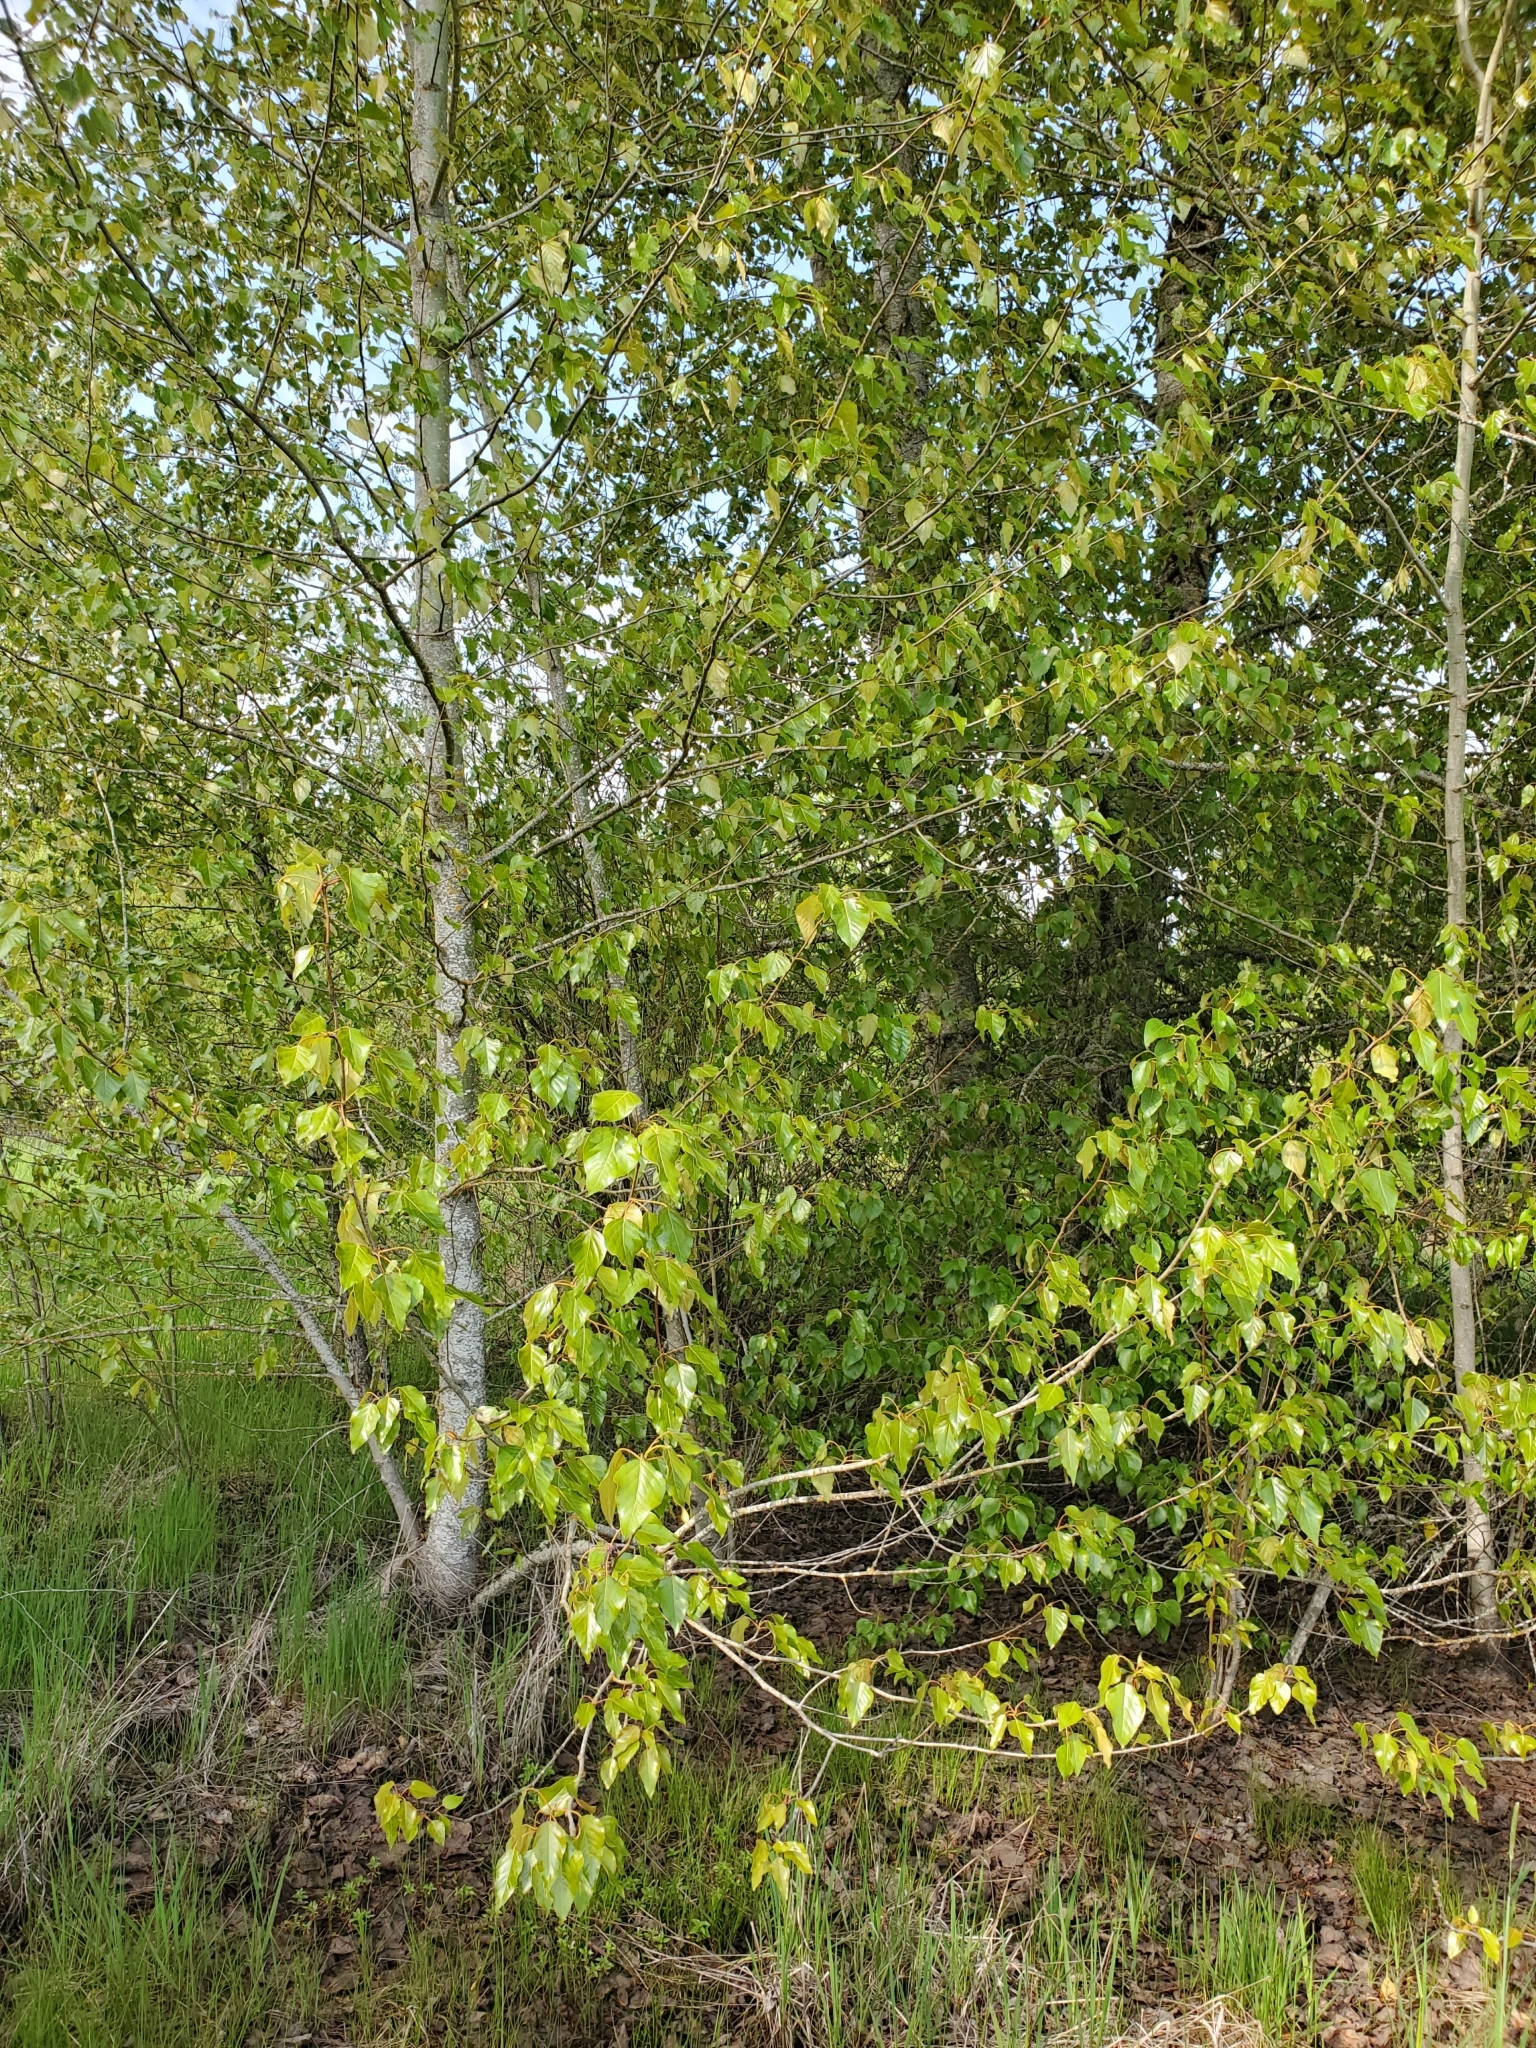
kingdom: Plantae
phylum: Tracheophyta
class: Magnoliopsida
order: Malpighiales
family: Salicaceae
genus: Populus
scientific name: Populus trichocarpa
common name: Black cottonwood
